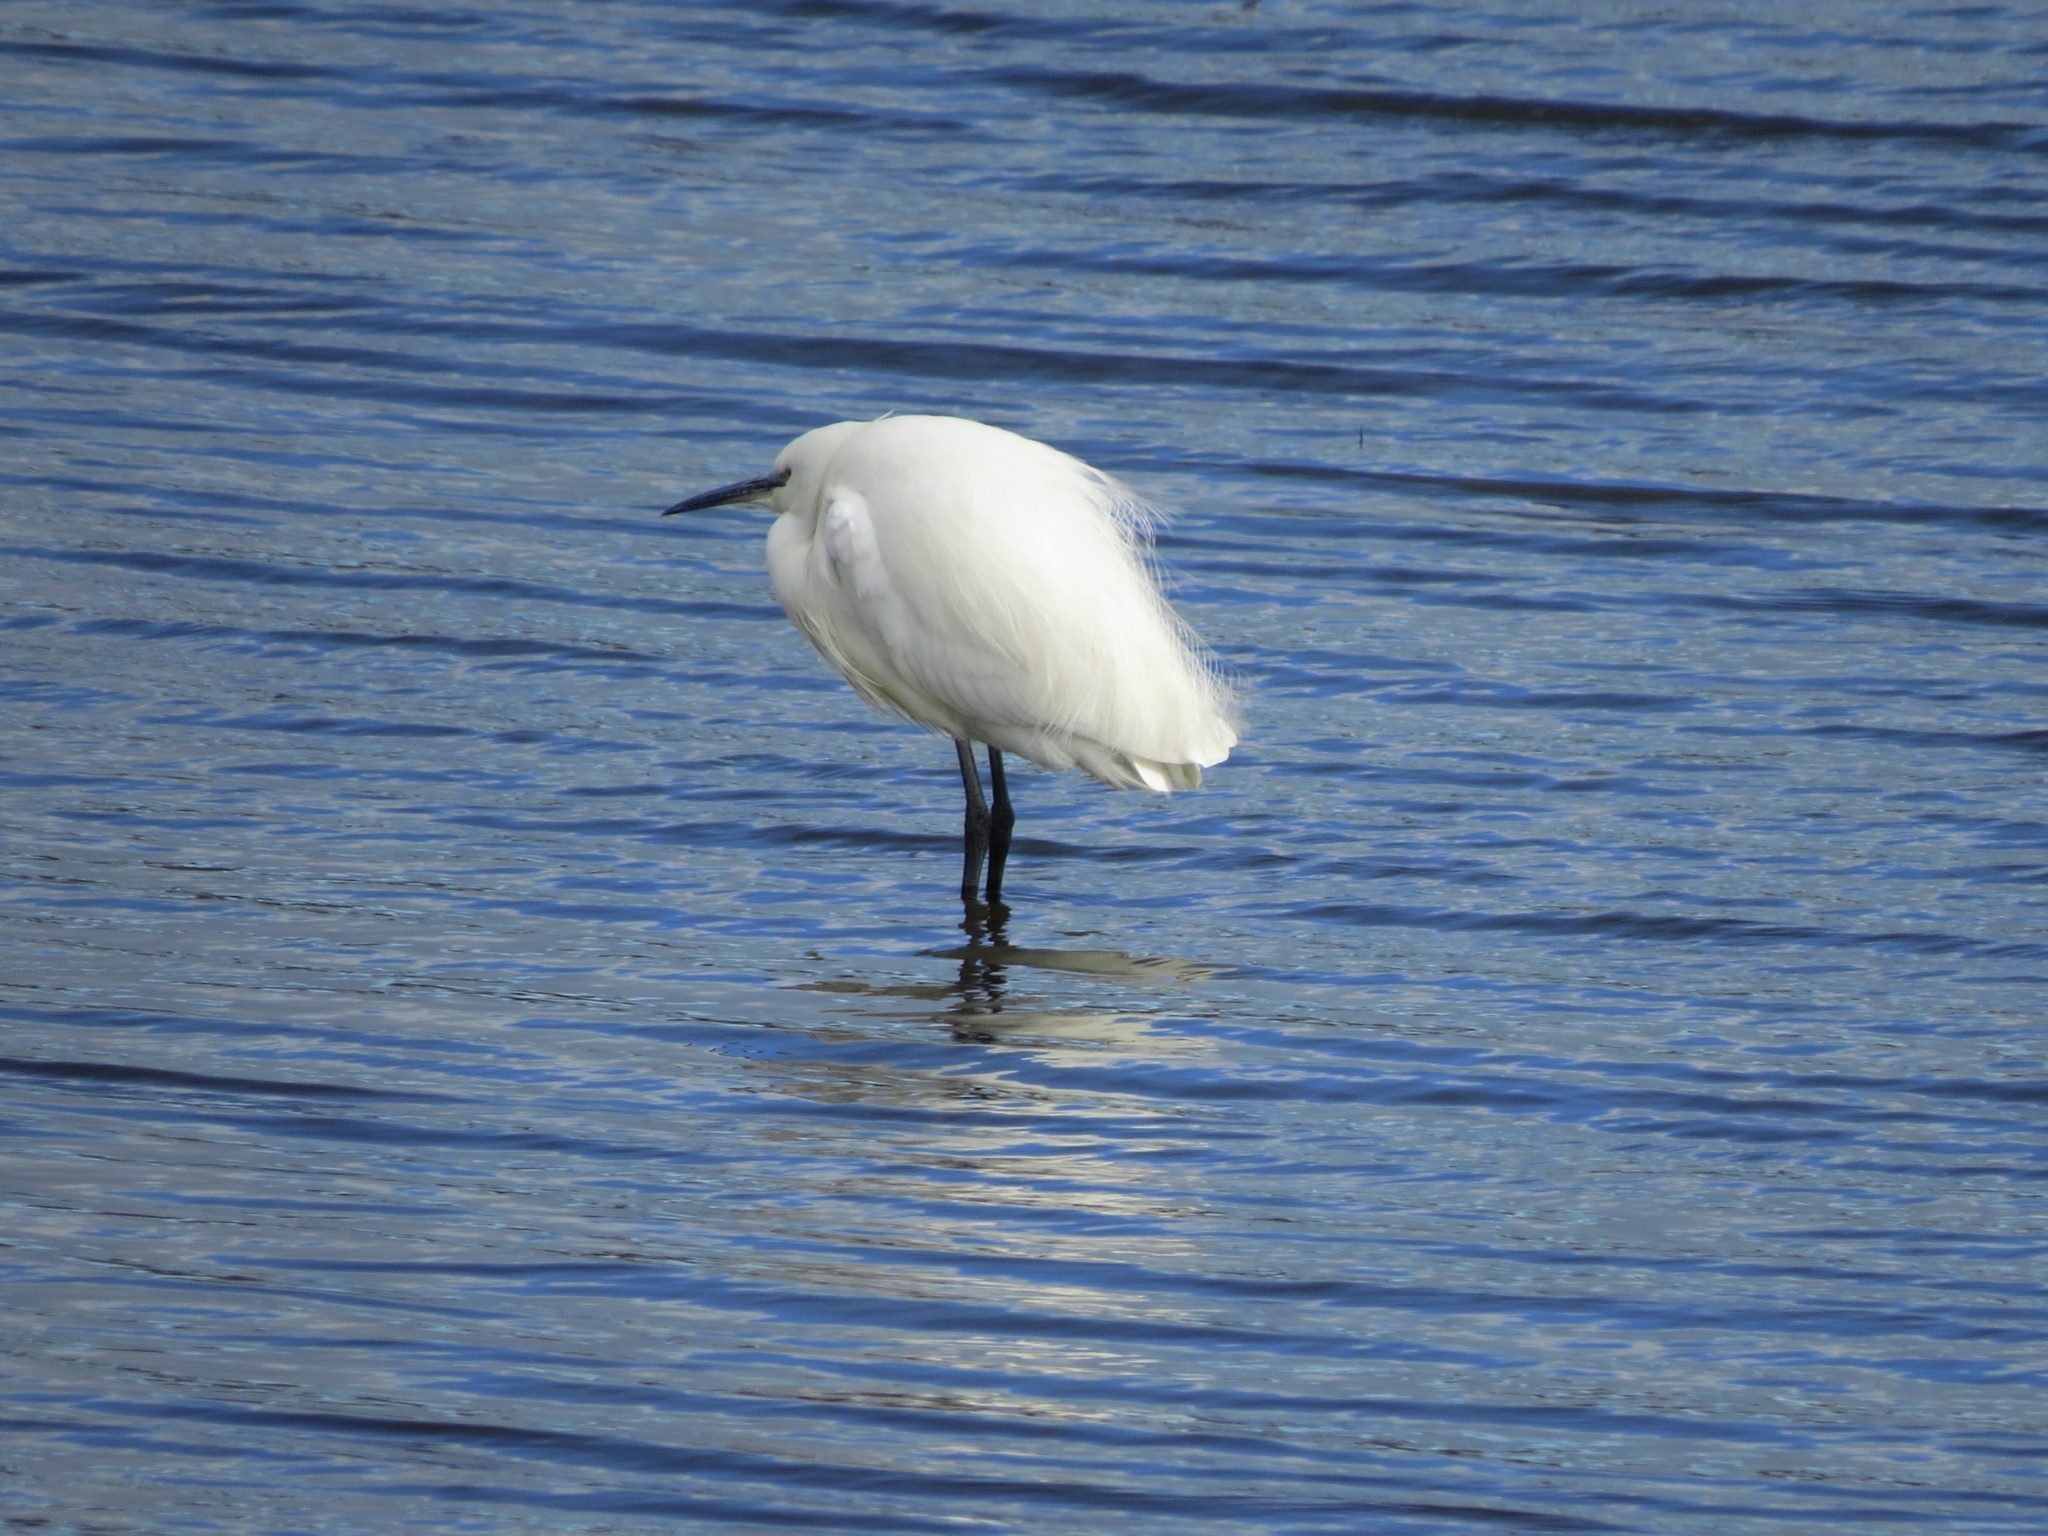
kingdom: Animalia
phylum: Chordata
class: Aves
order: Pelecaniformes
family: Ardeidae
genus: Egretta
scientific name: Egretta garzetta
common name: Little egret
